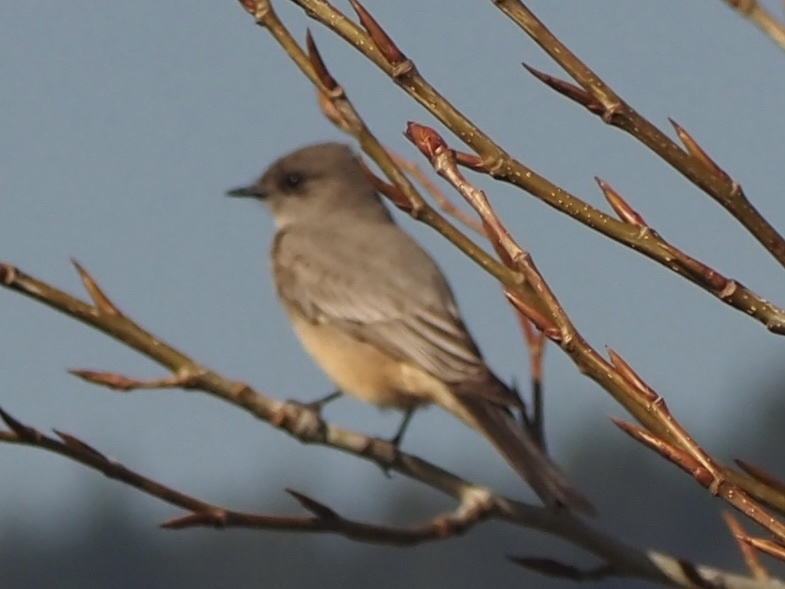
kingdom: Animalia
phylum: Chordata
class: Aves
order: Passeriformes
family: Tyrannidae
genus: Sayornis
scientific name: Sayornis saya
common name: Say's phoebe
